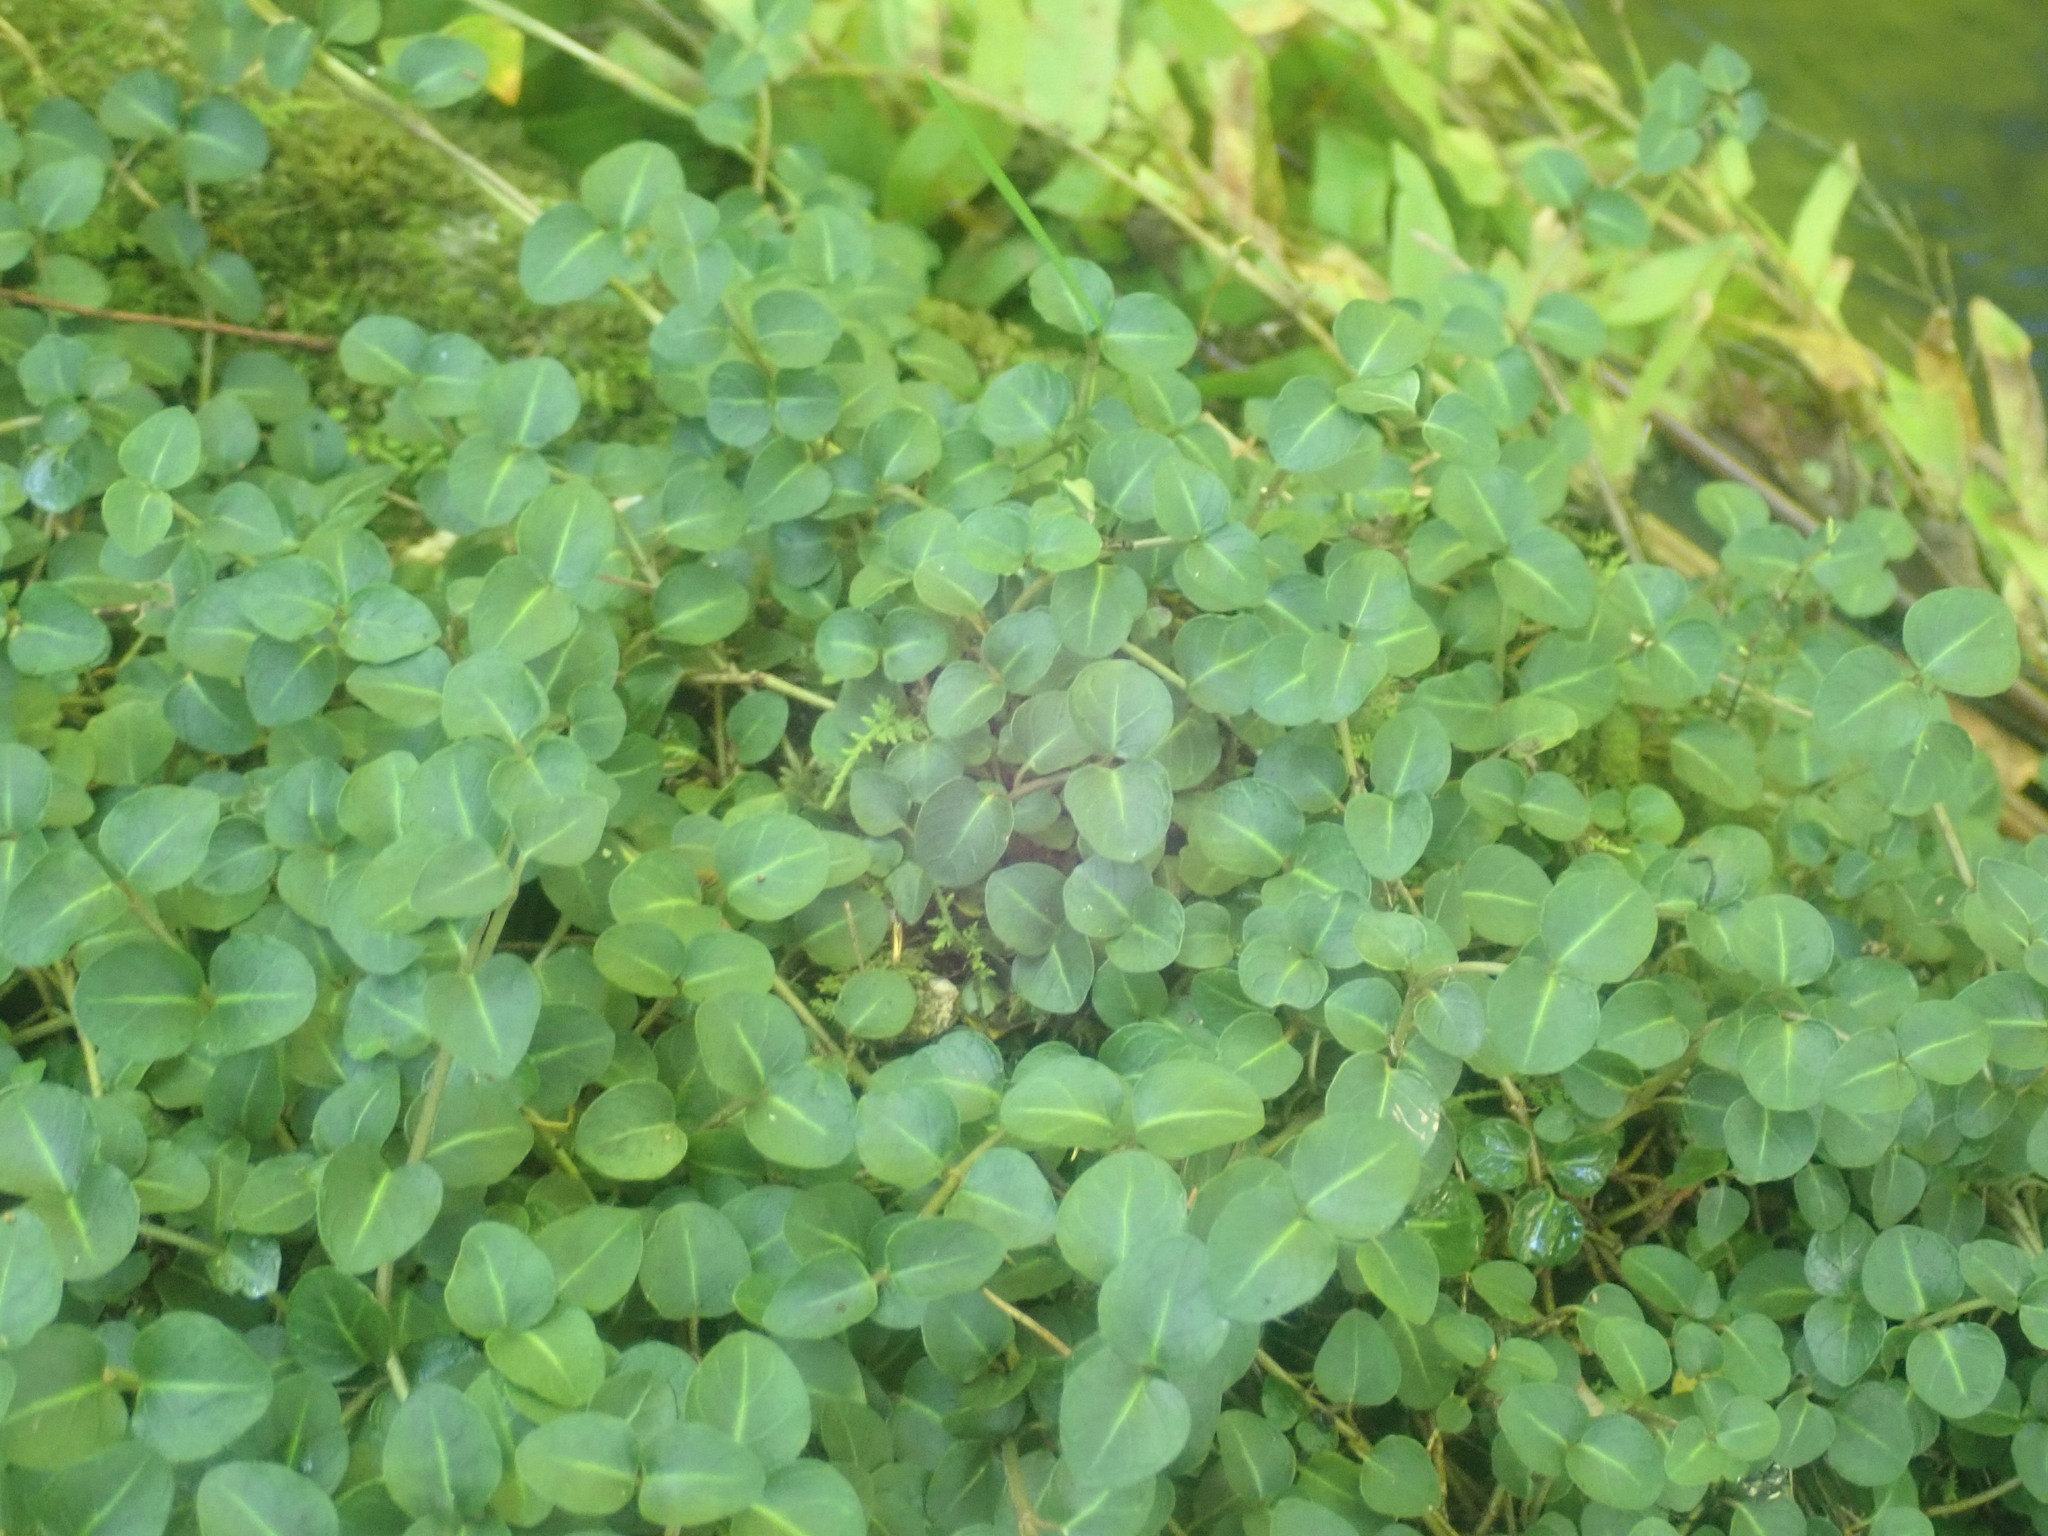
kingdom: Plantae
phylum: Tracheophyta
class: Magnoliopsida
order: Gentianales
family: Rubiaceae
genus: Mitchella
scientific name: Mitchella repens
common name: Partridge-berry
